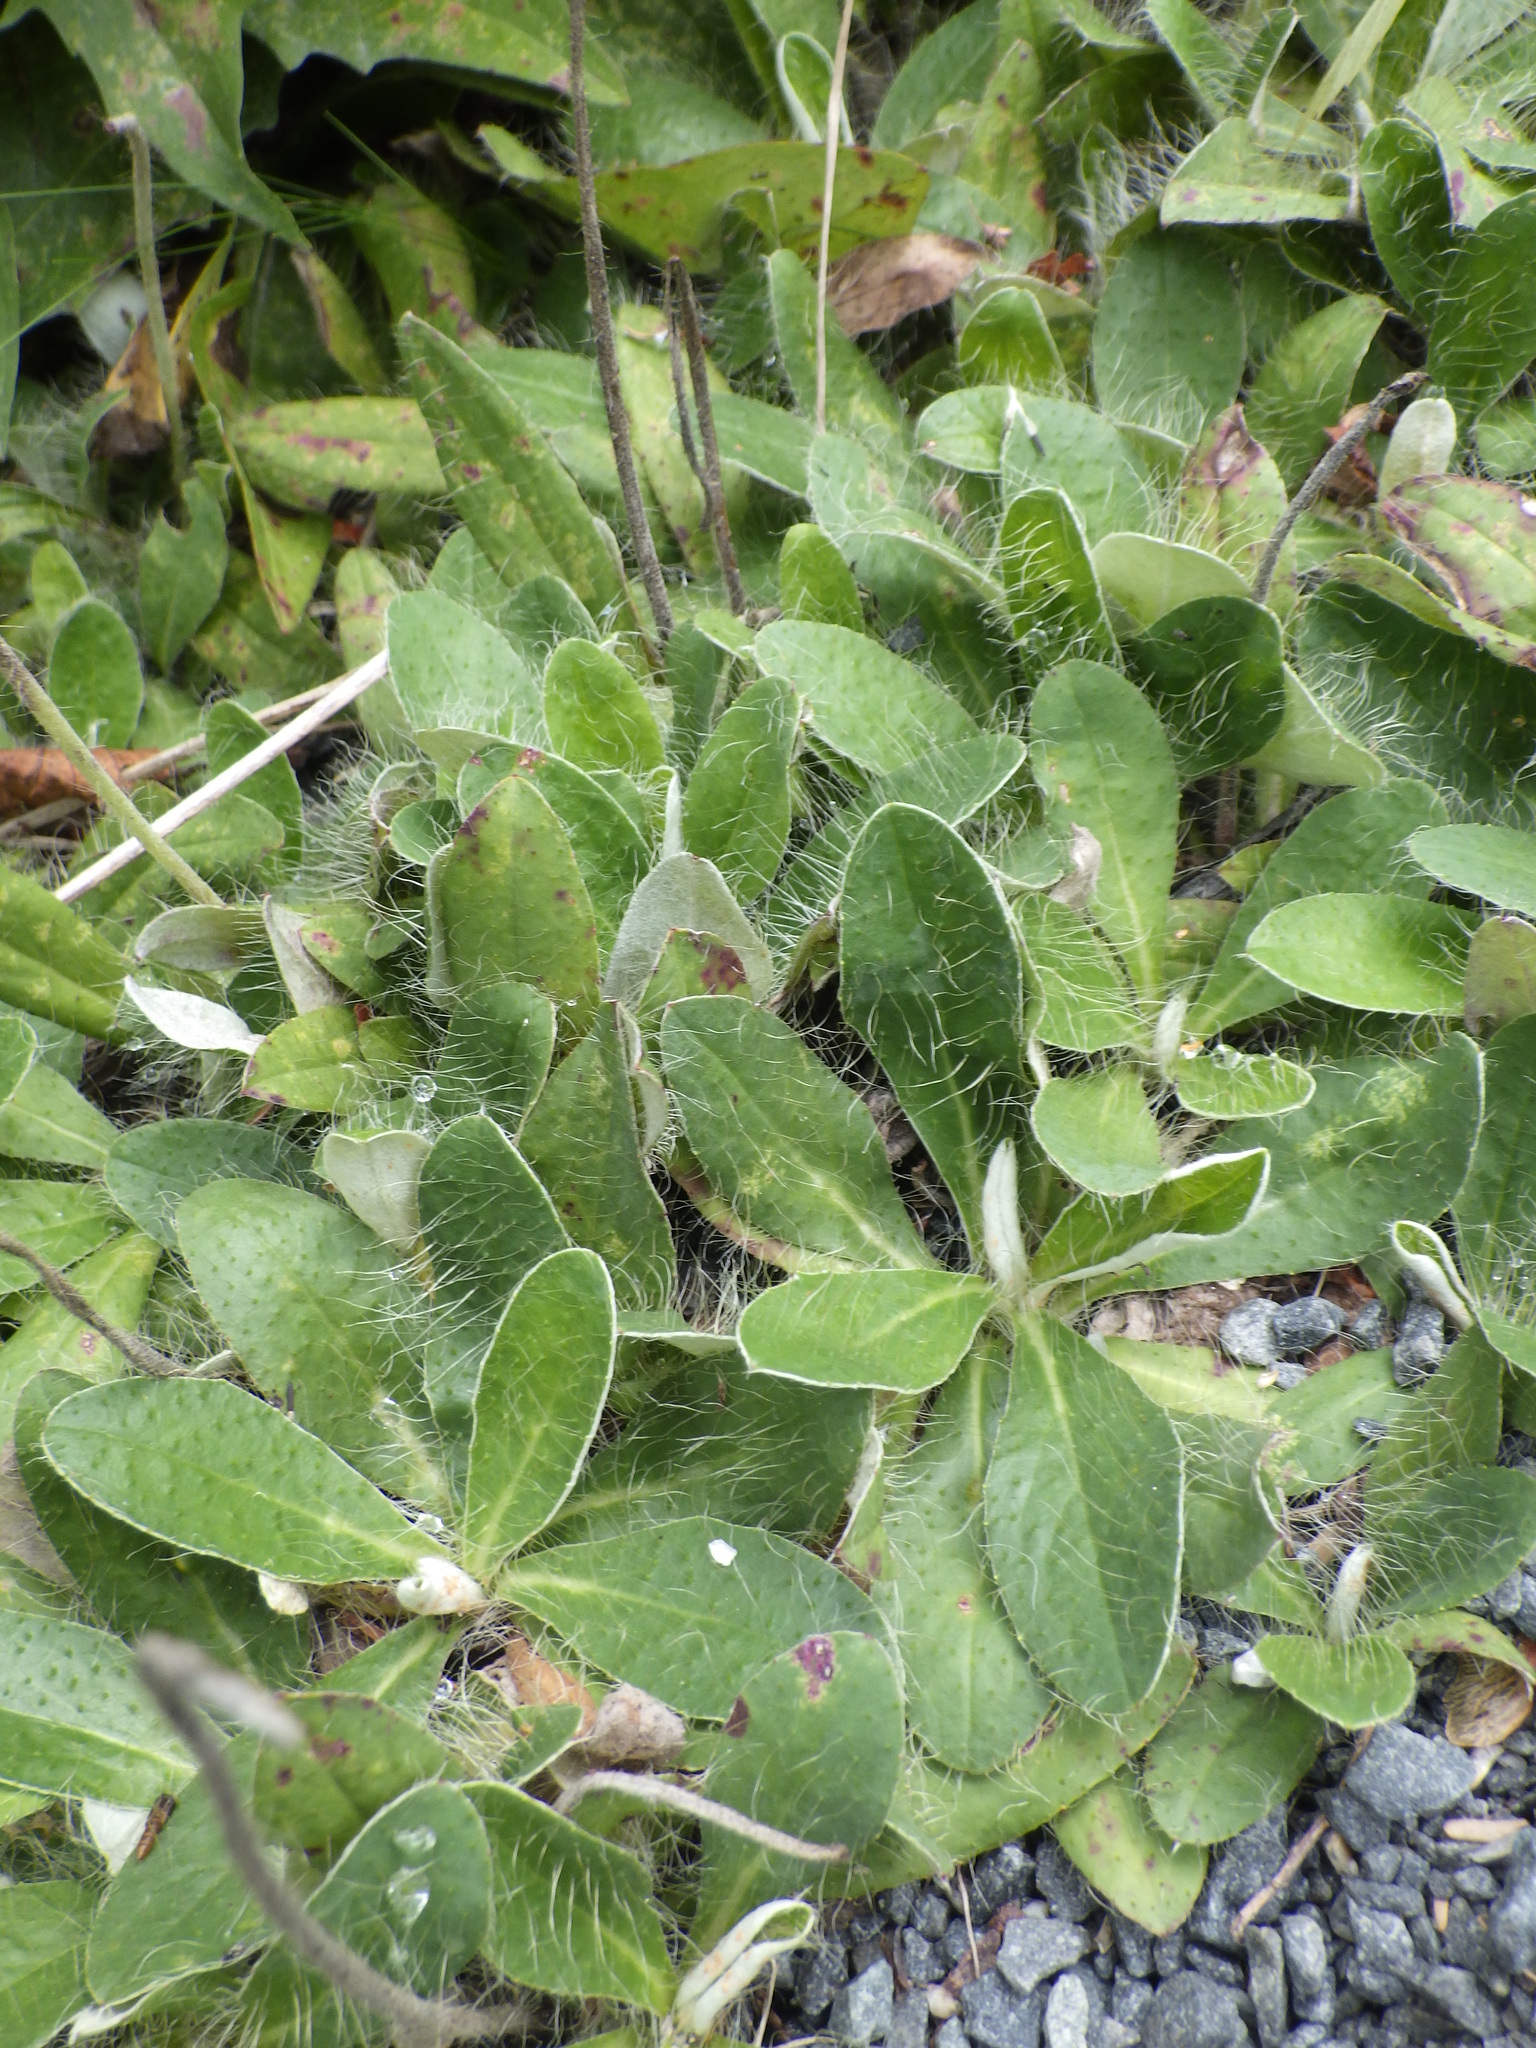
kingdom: Plantae
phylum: Tracheophyta
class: Magnoliopsida
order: Asterales
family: Asteraceae
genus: Pilosella
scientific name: Pilosella officinarum
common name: Mouse-ear hawkweed
